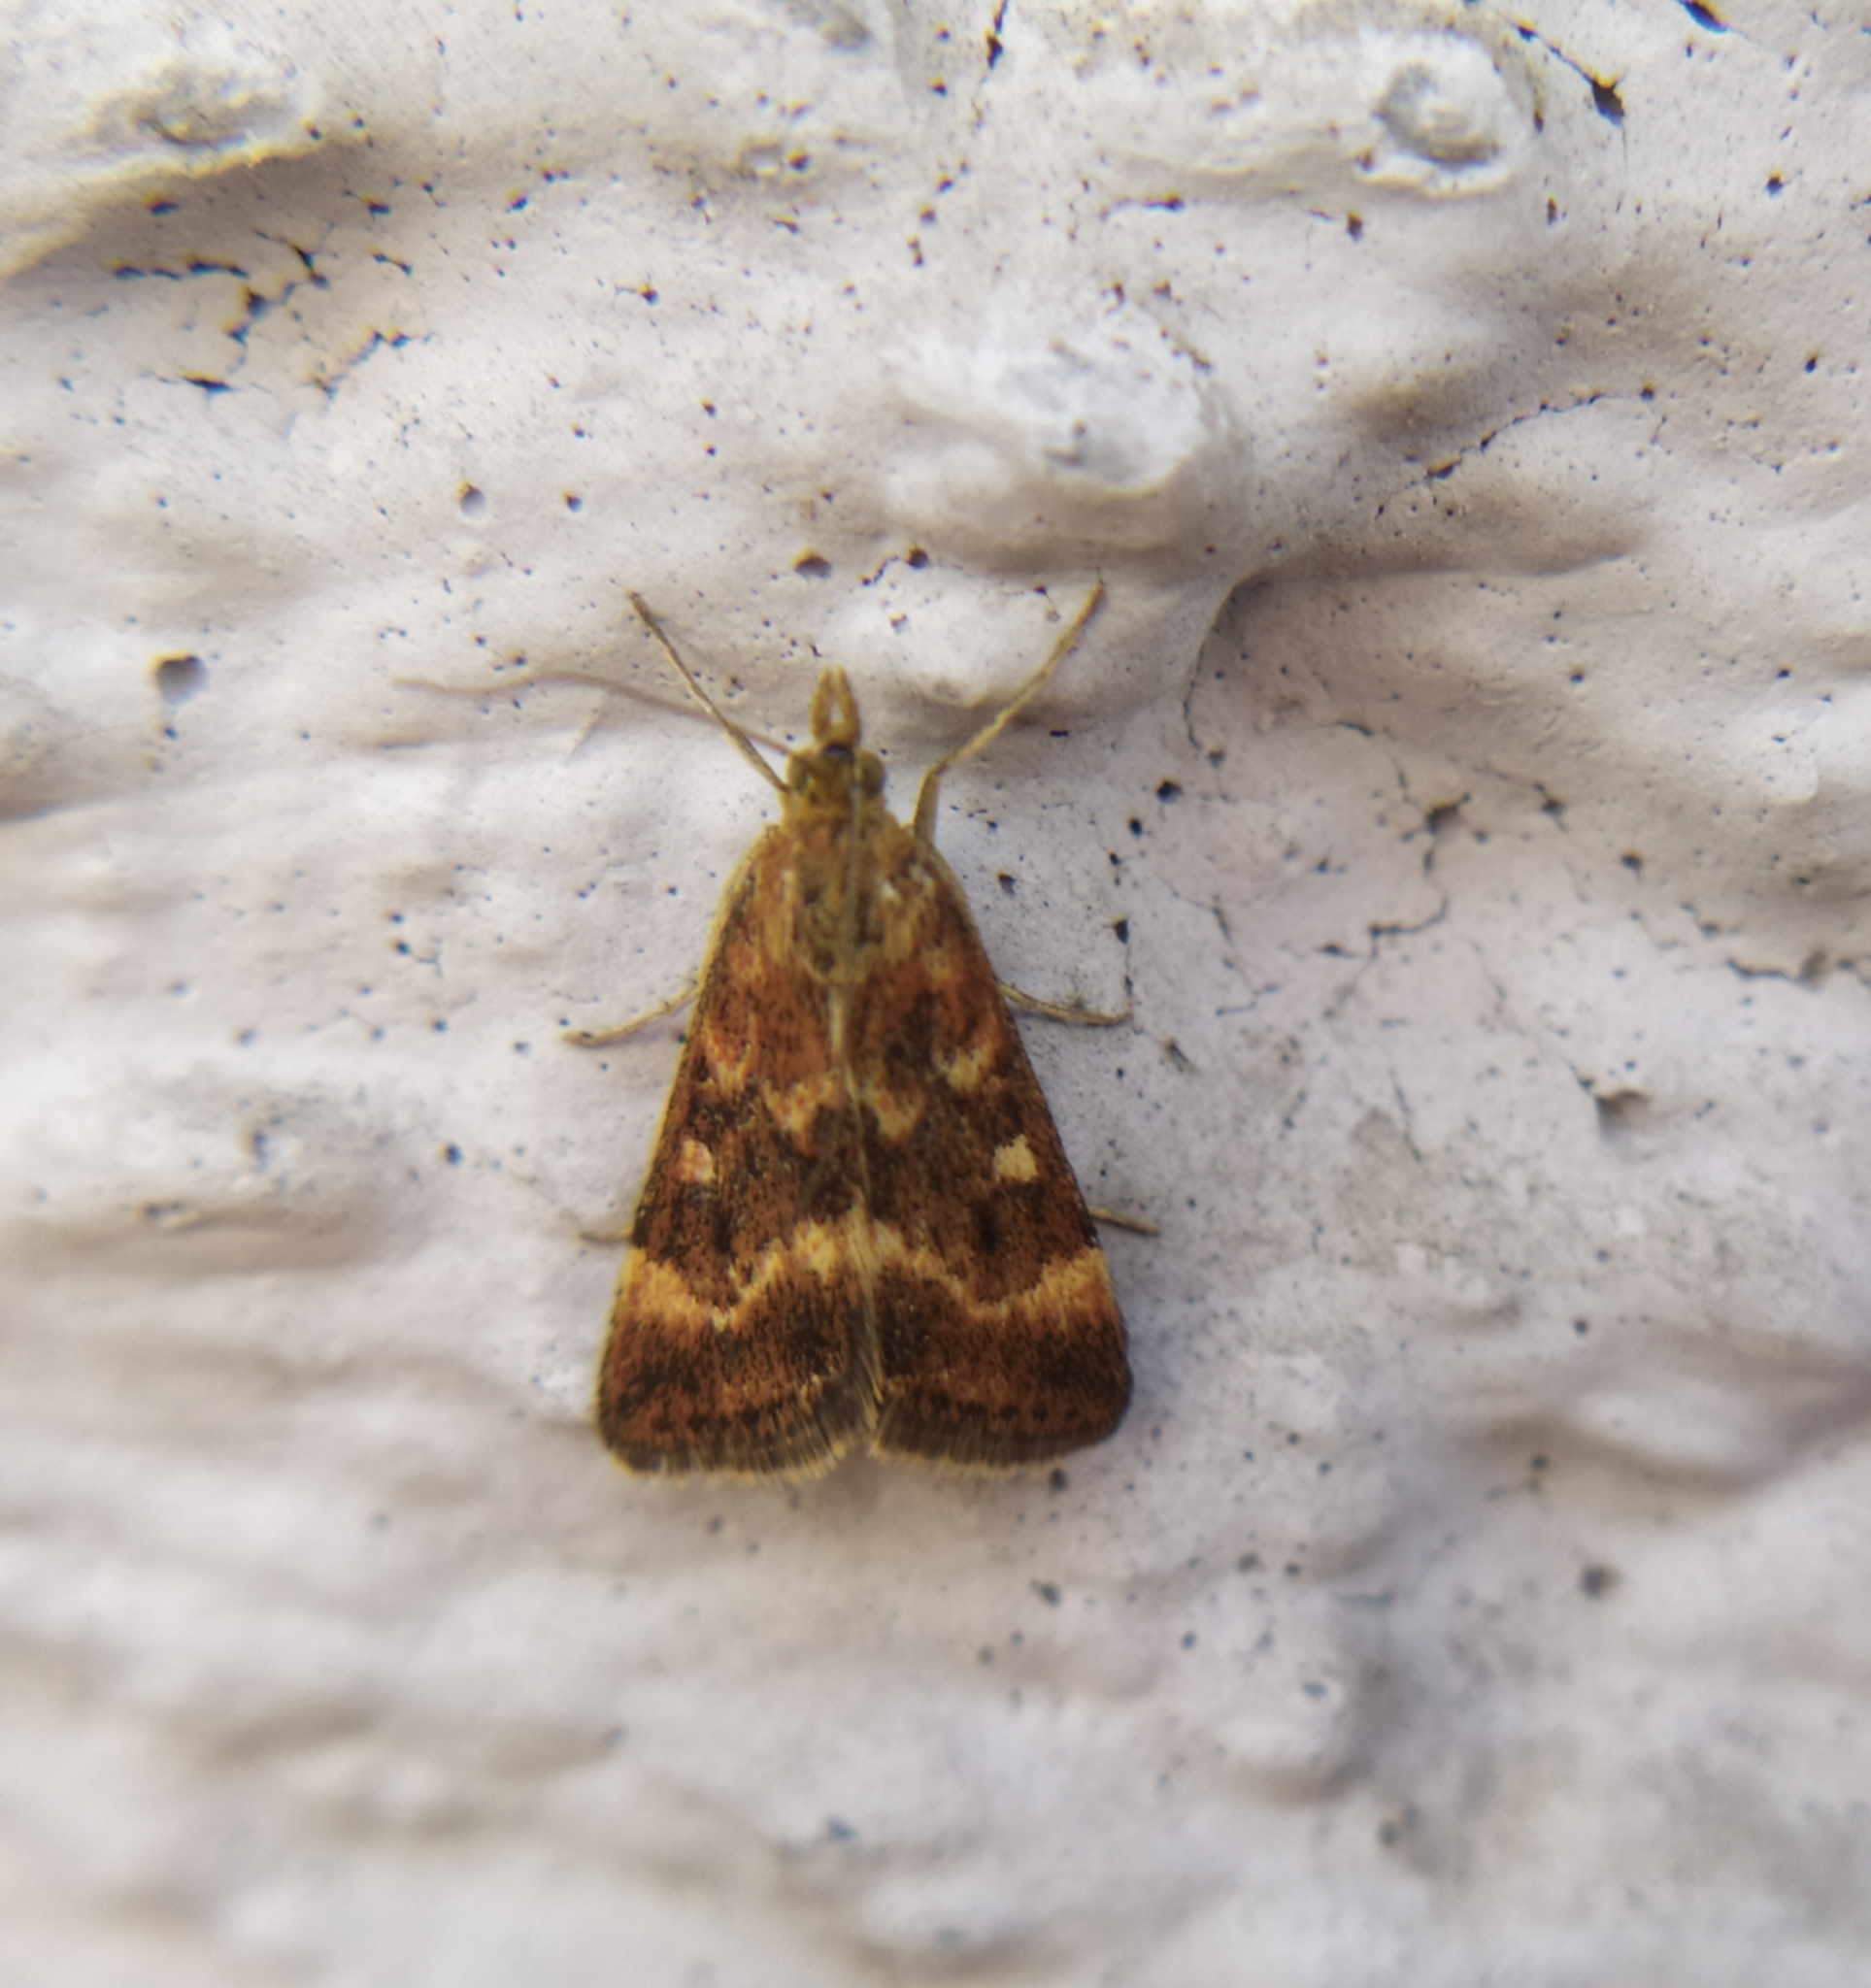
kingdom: Animalia
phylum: Arthropoda
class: Insecta
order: Lepidoptera
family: Crambidae
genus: Pyrausta
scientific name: Pyrausta despicata
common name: Straw-barred pearl
